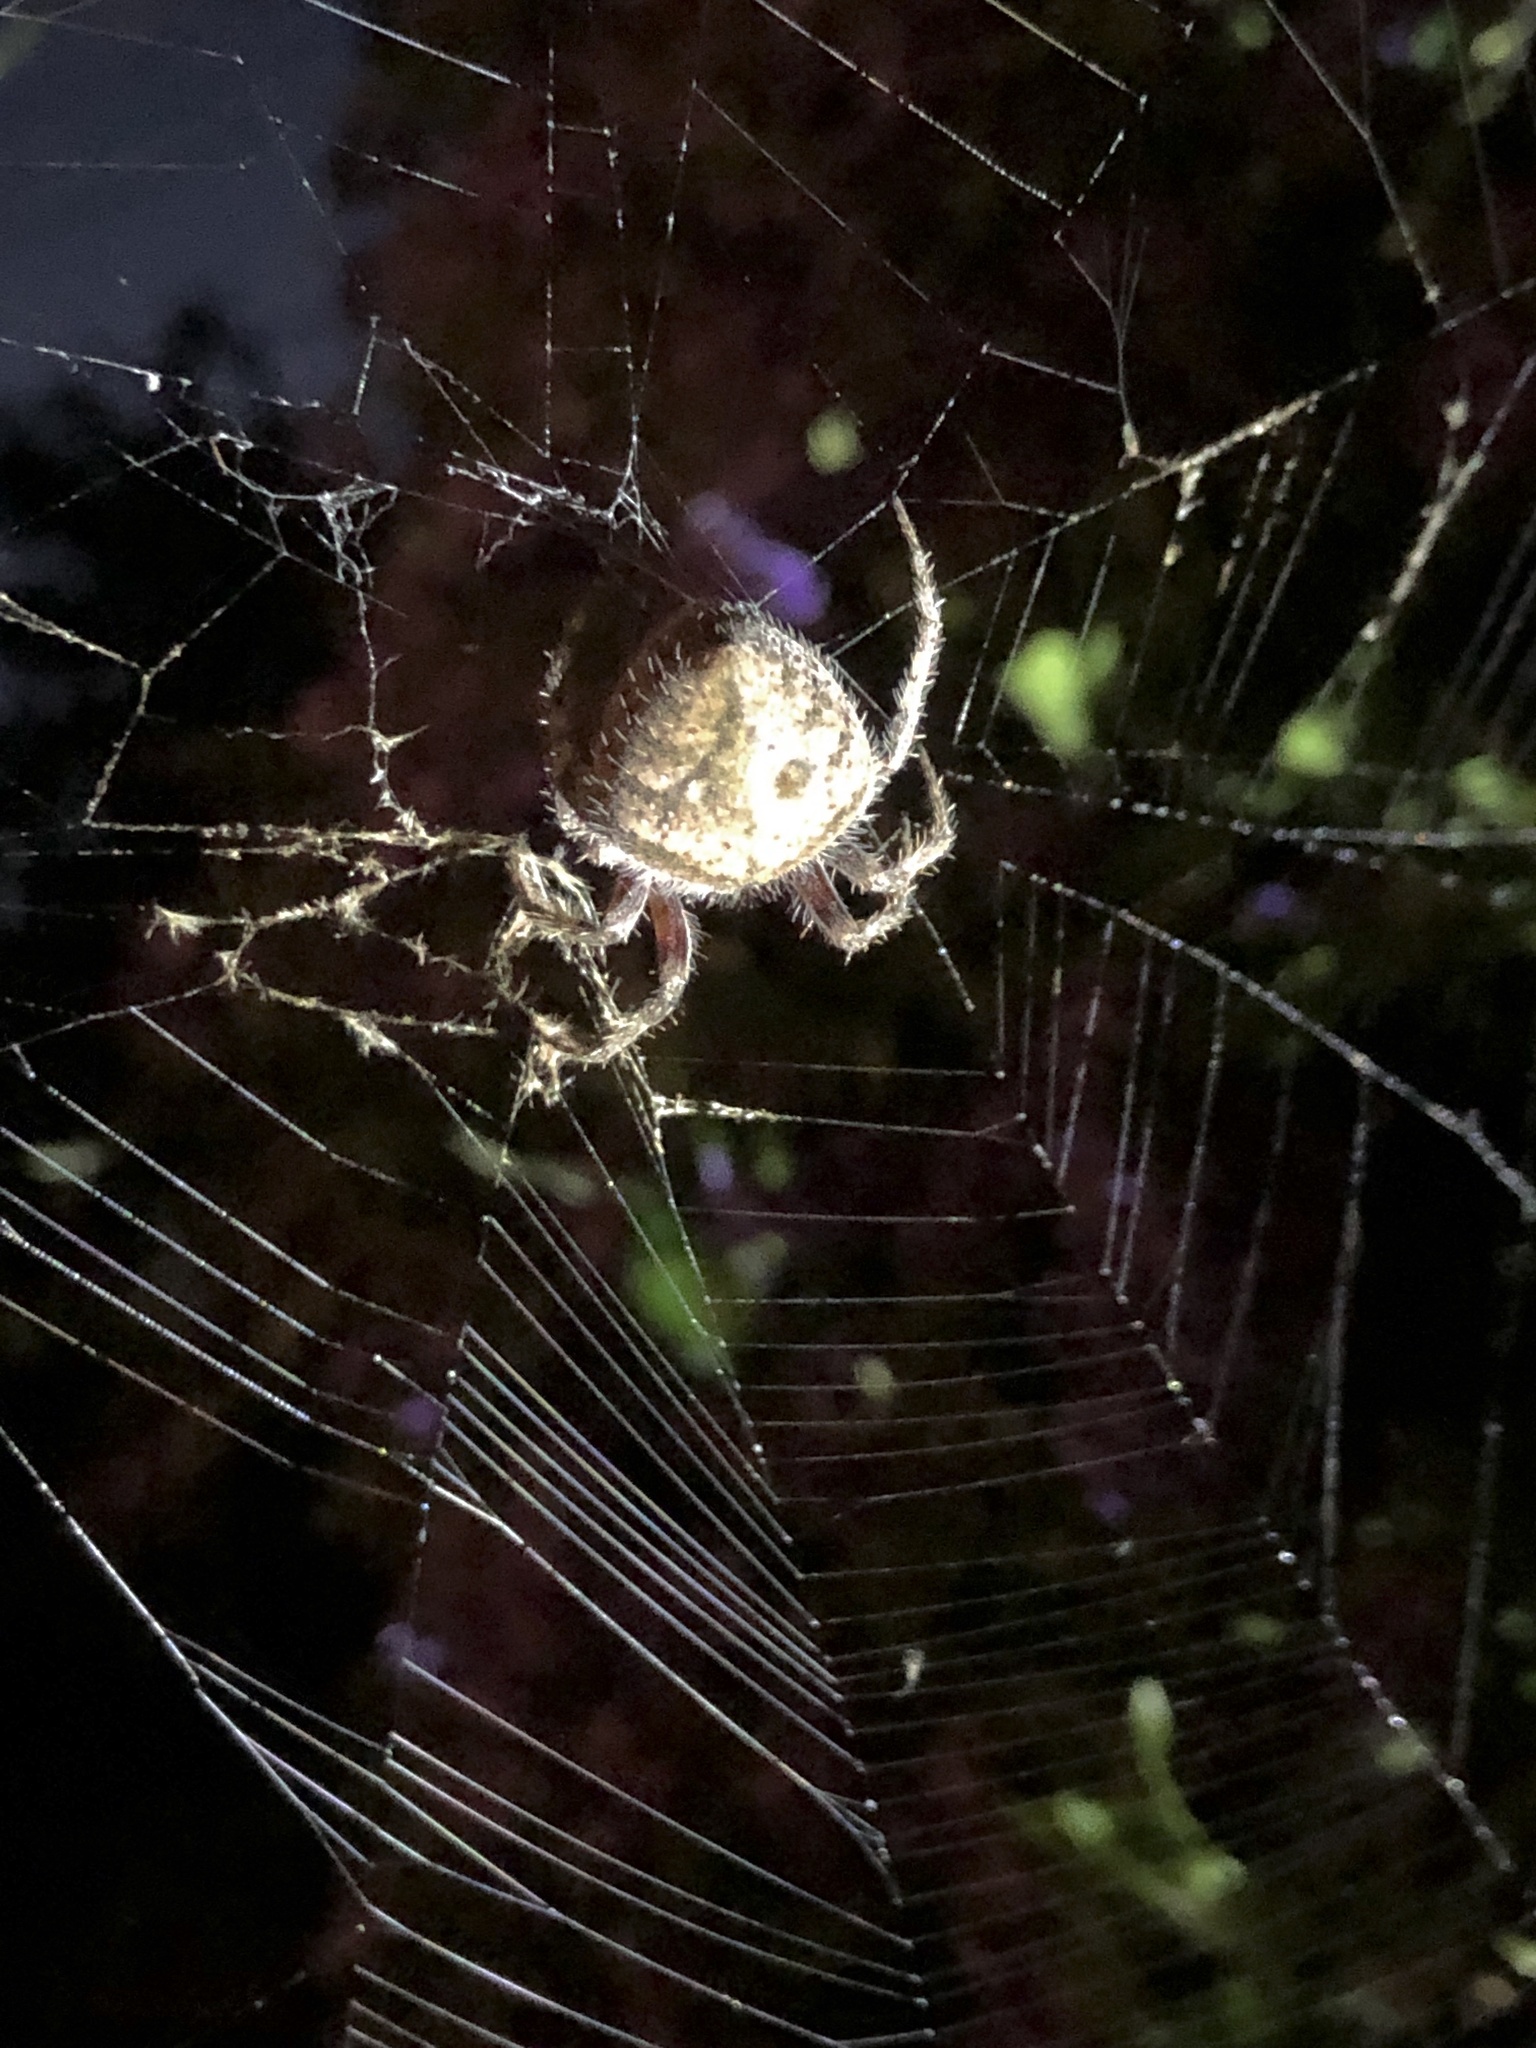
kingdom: Animalia
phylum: Arthropoda
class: Arachnida
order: Araneae
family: Araneidae
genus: Eriophora
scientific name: Eriophora edax
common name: Orb weavers
